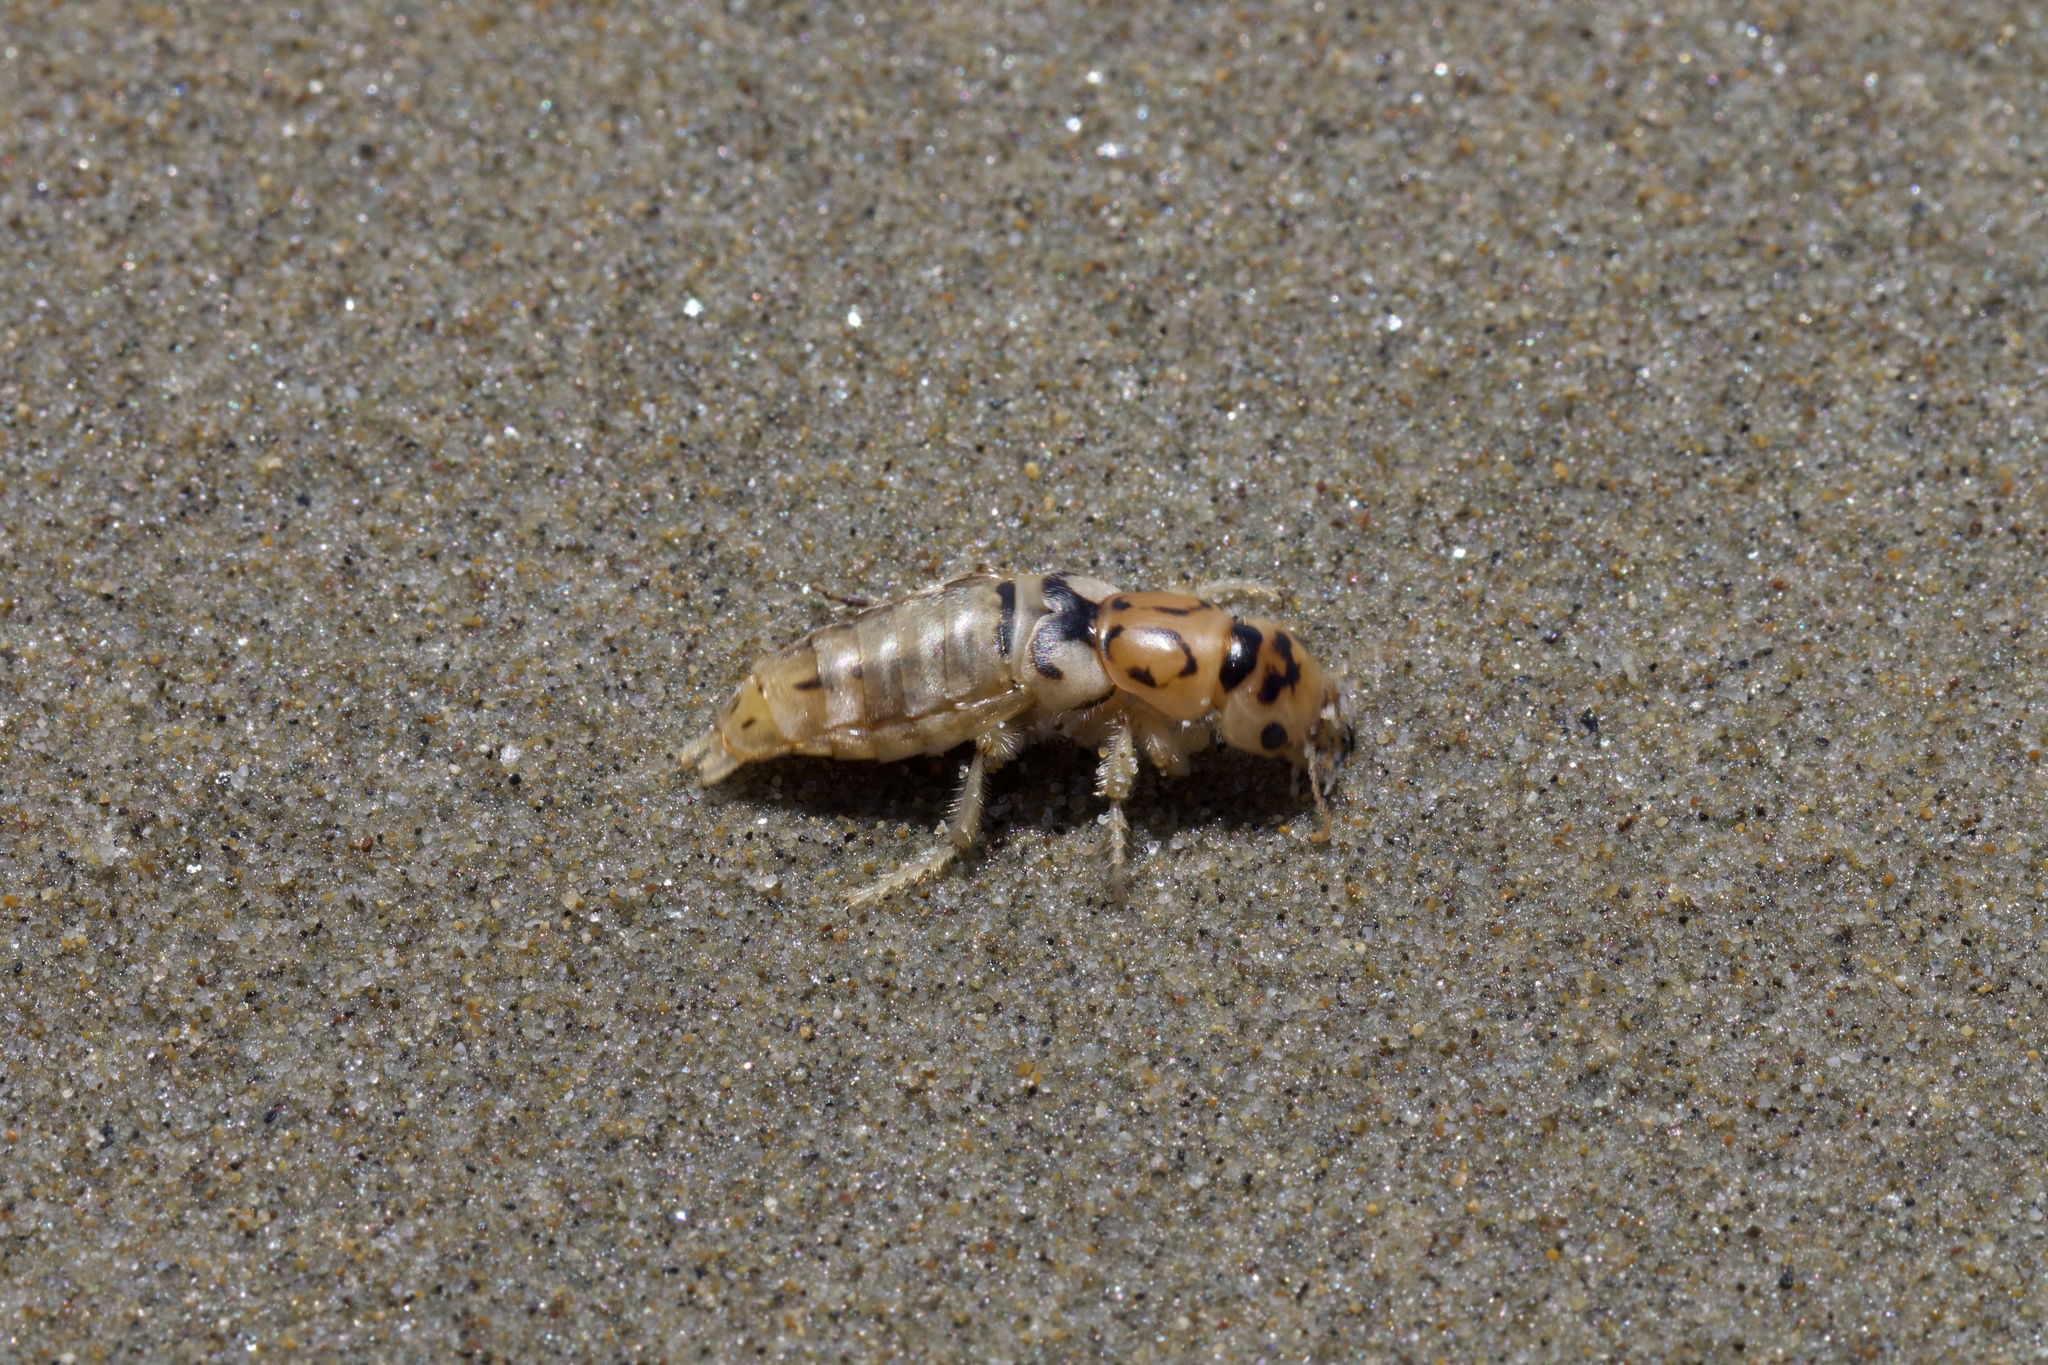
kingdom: Animalia
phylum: Arthropoda
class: Insecta
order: Coleoptera
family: Staphylinidae
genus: Thinopinus
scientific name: Thinopinus pictus
